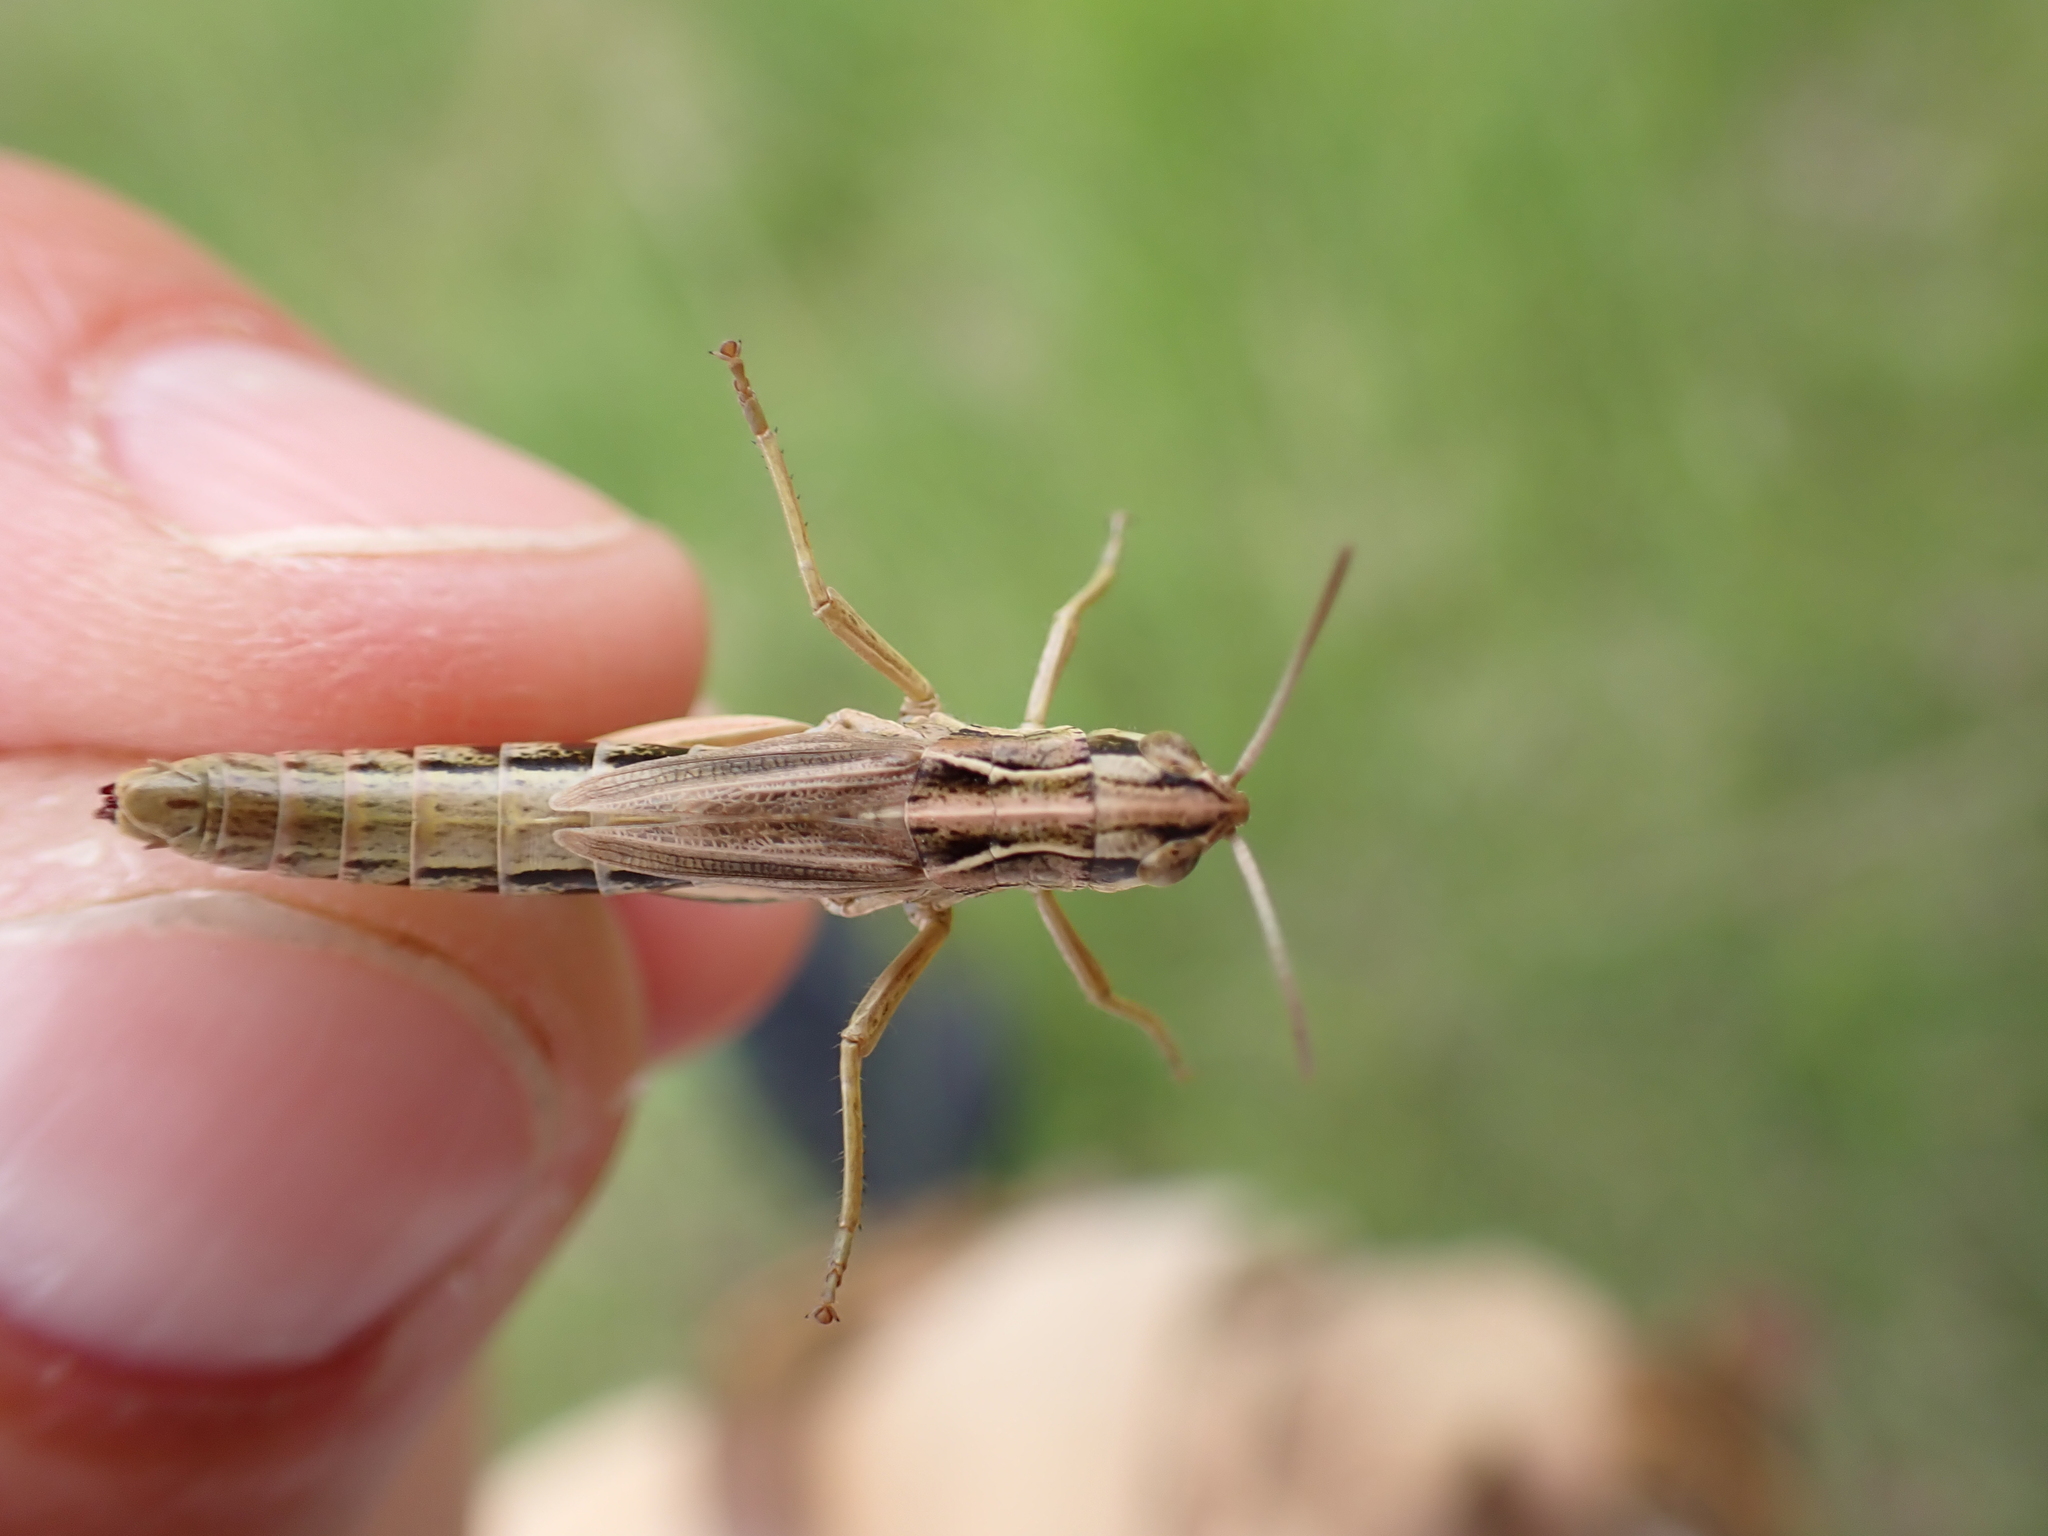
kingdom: Animalia
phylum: Arthropoda
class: Insecta
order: Orthoptera
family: Acrididae
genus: Pseudochorthippus
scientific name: Pseudochorthippus parallelus
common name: Meadow grasshopper
